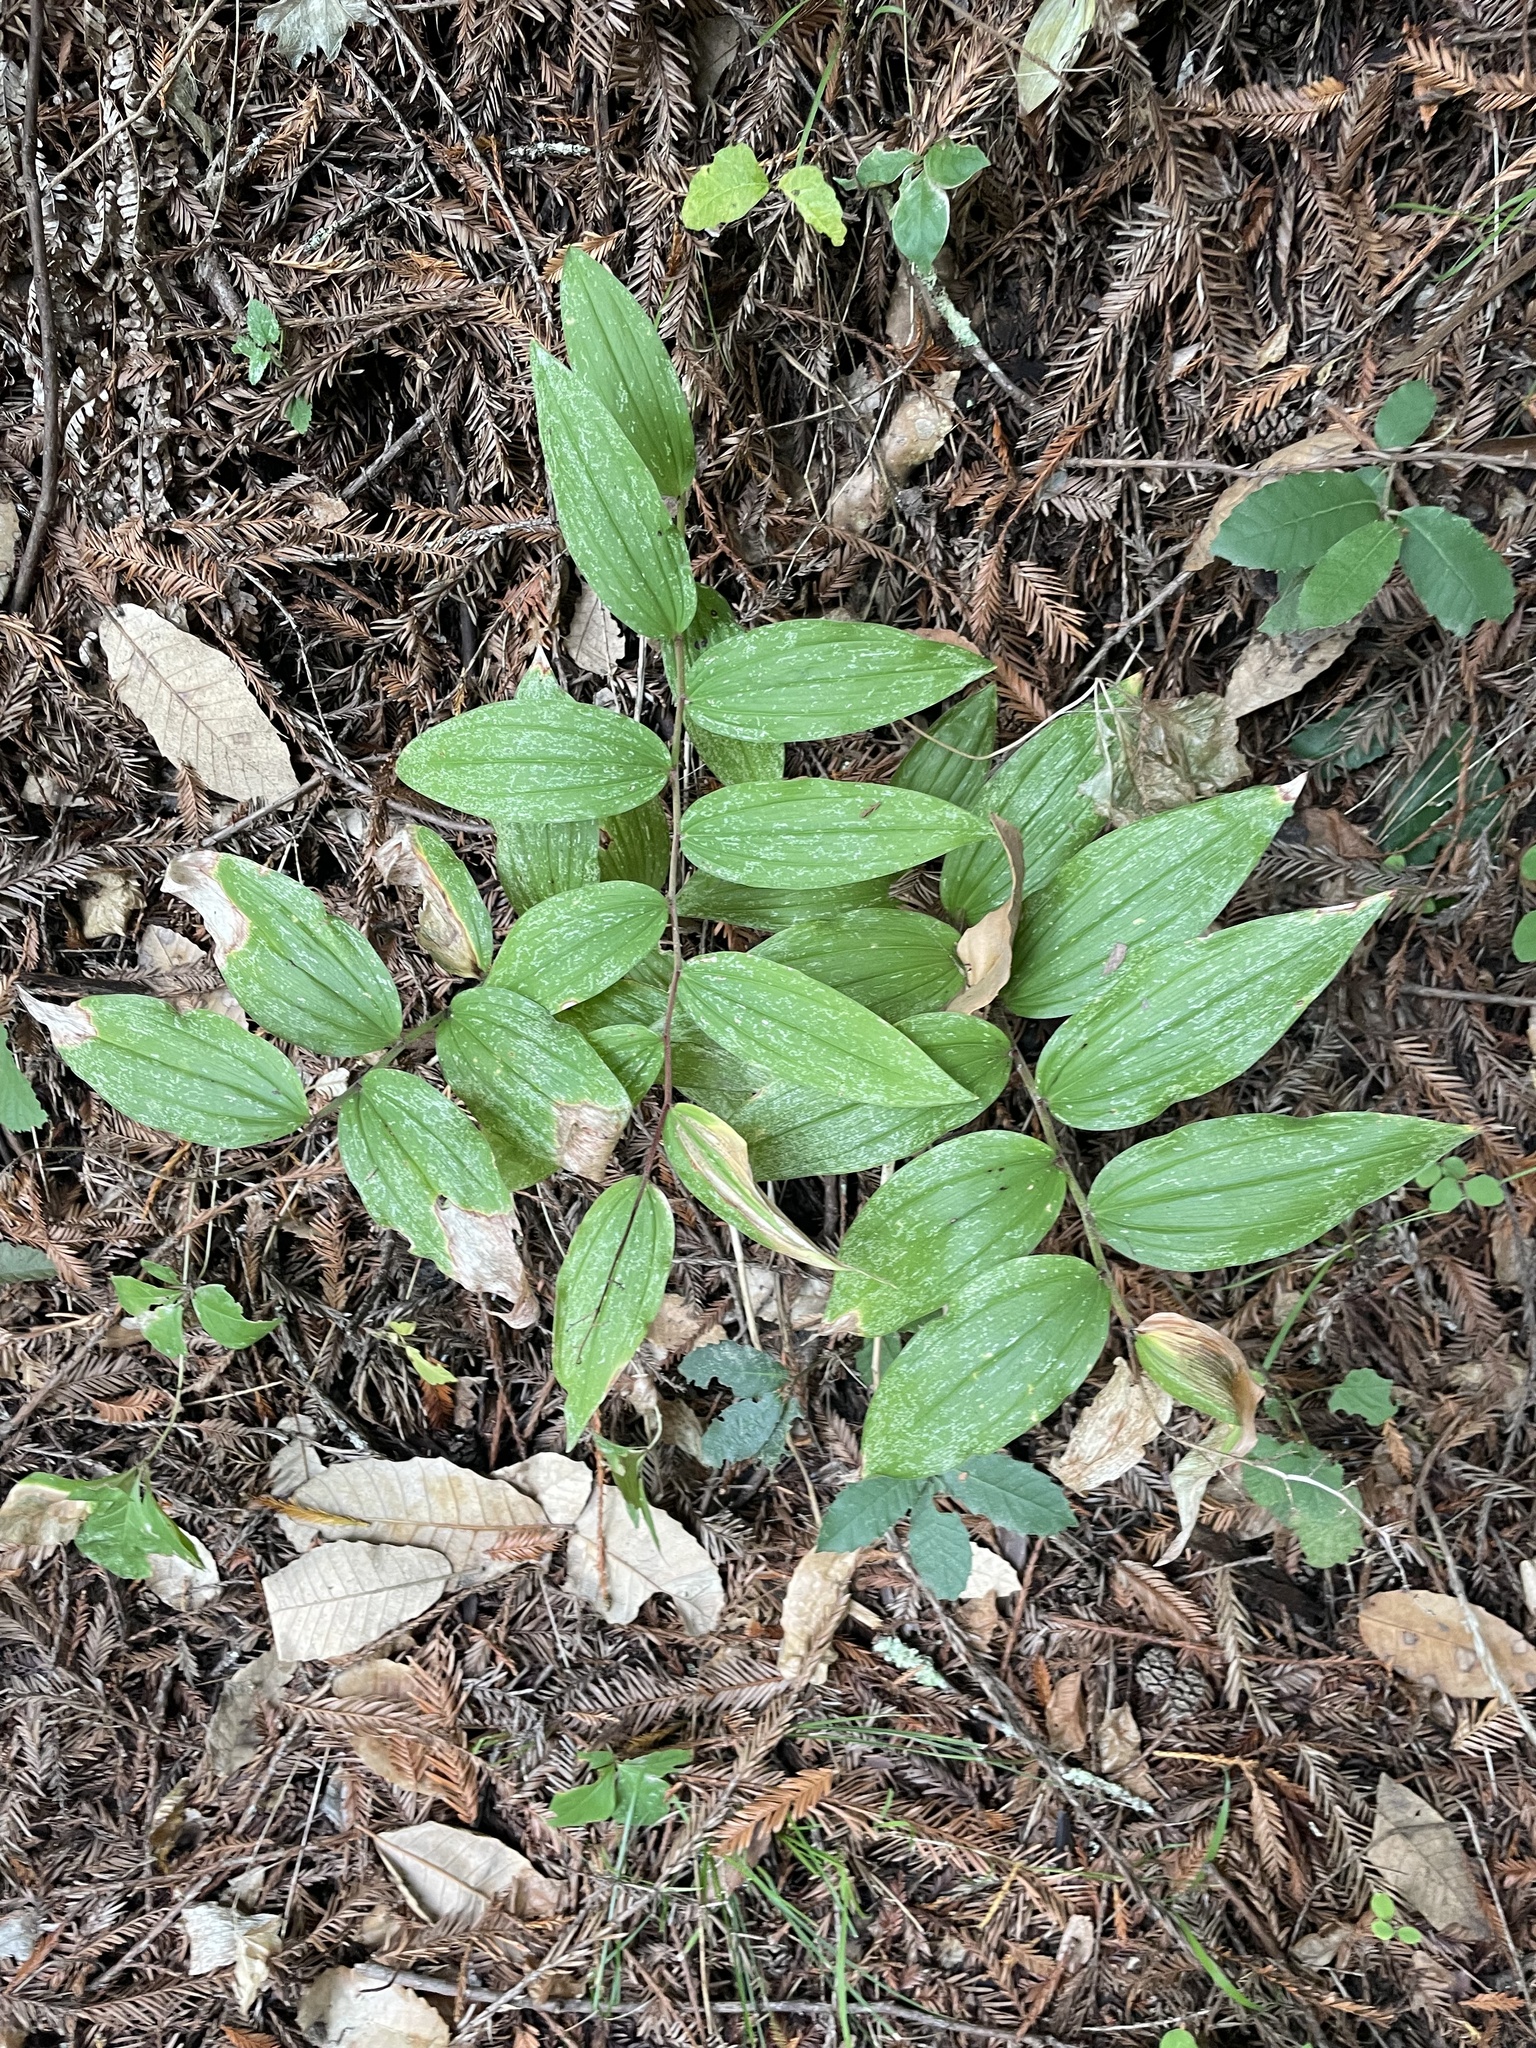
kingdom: Plantae
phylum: Tracheophyta
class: Liliopsida
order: Asparagales
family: Asparagaceae
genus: Maianthemum
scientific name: Maianthemum racemosum
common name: False spikenard
